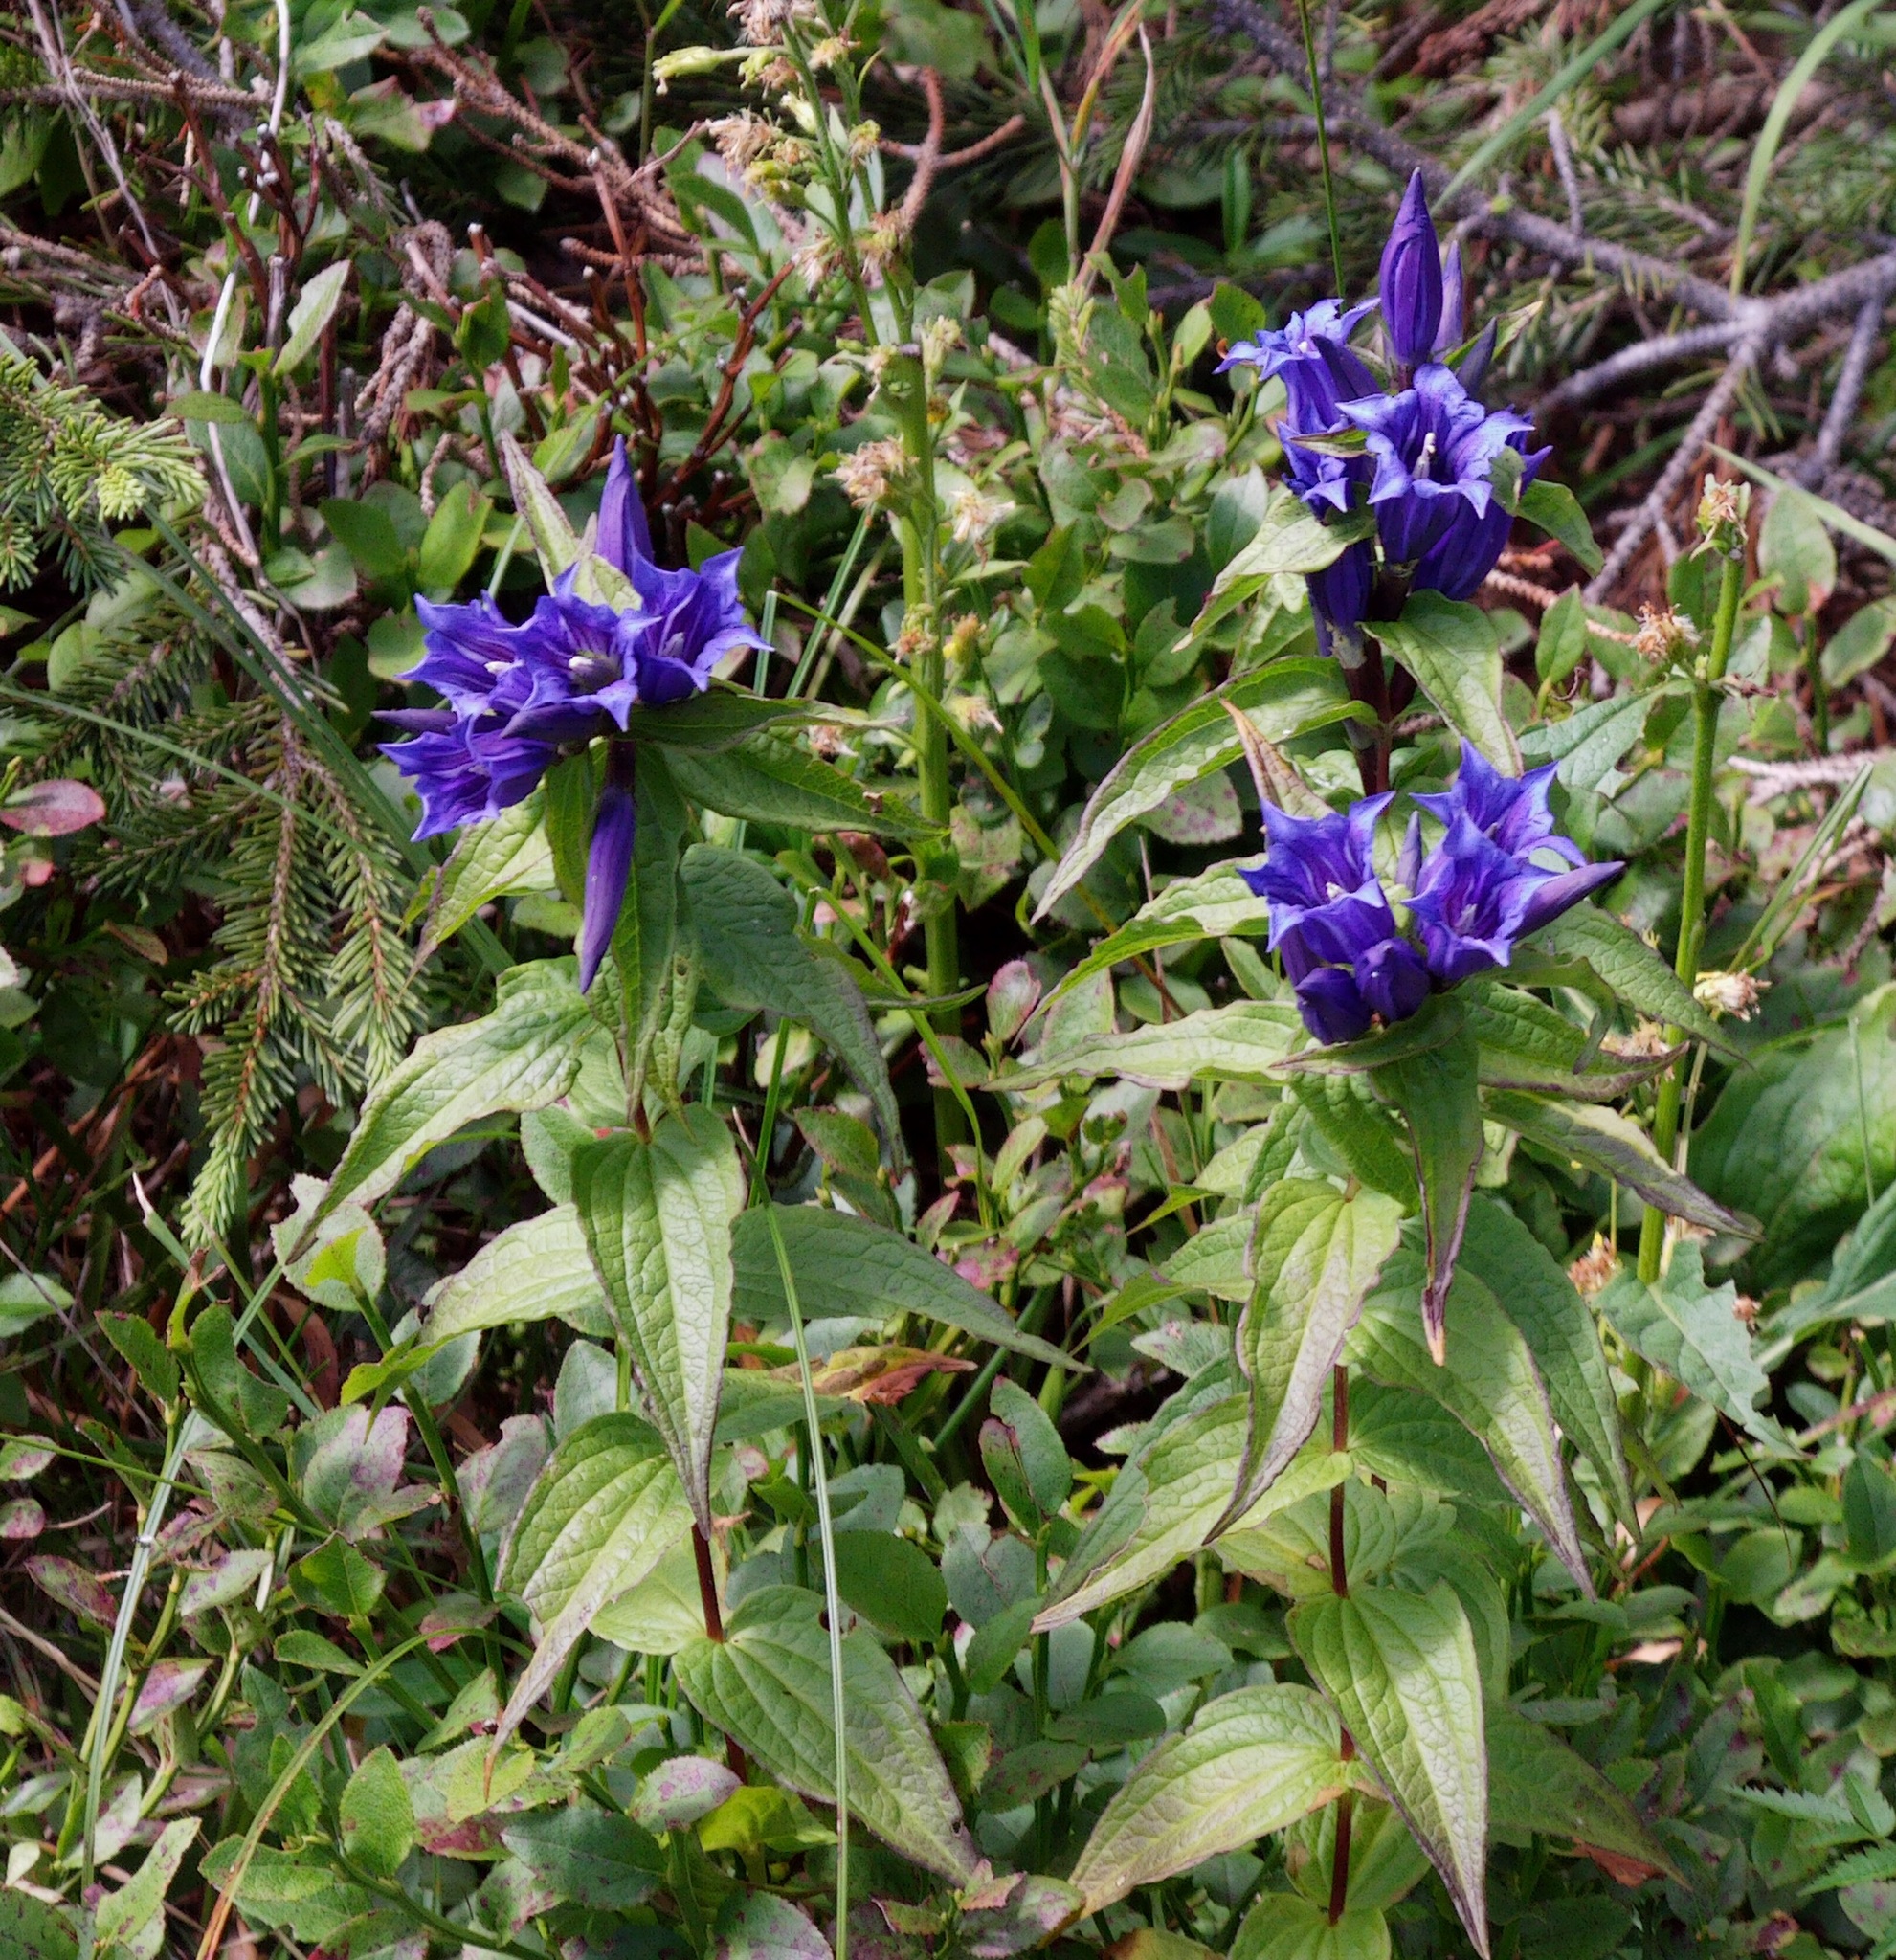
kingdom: Plantae
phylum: Tracheophyta
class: Magnoliopsida
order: Gentianales
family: Gentianaceae
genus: Gentiana
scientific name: Gentiana asclepiadea
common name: Willow gentian
